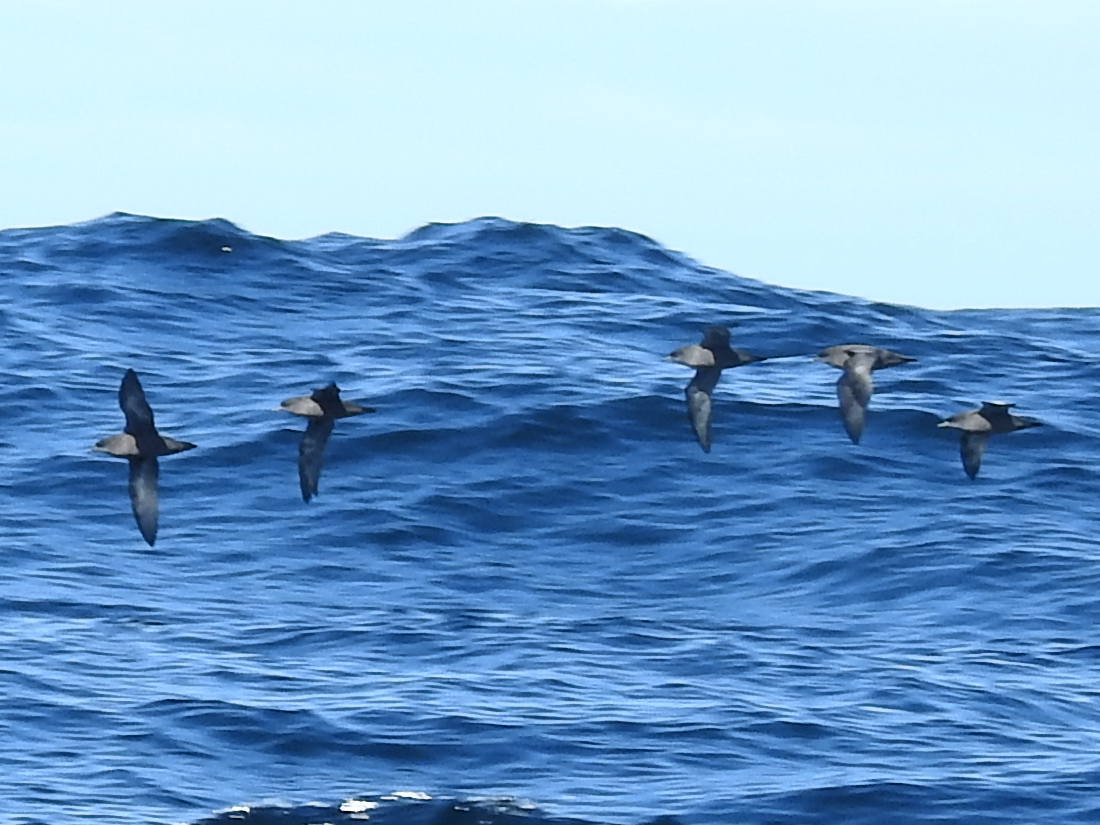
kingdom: Animalia
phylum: Chordata
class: Aves
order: Procellariiformes
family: Procellariidae
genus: Puffinus
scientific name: Puffinus tenuirostris
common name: Short-tailed shearwater
